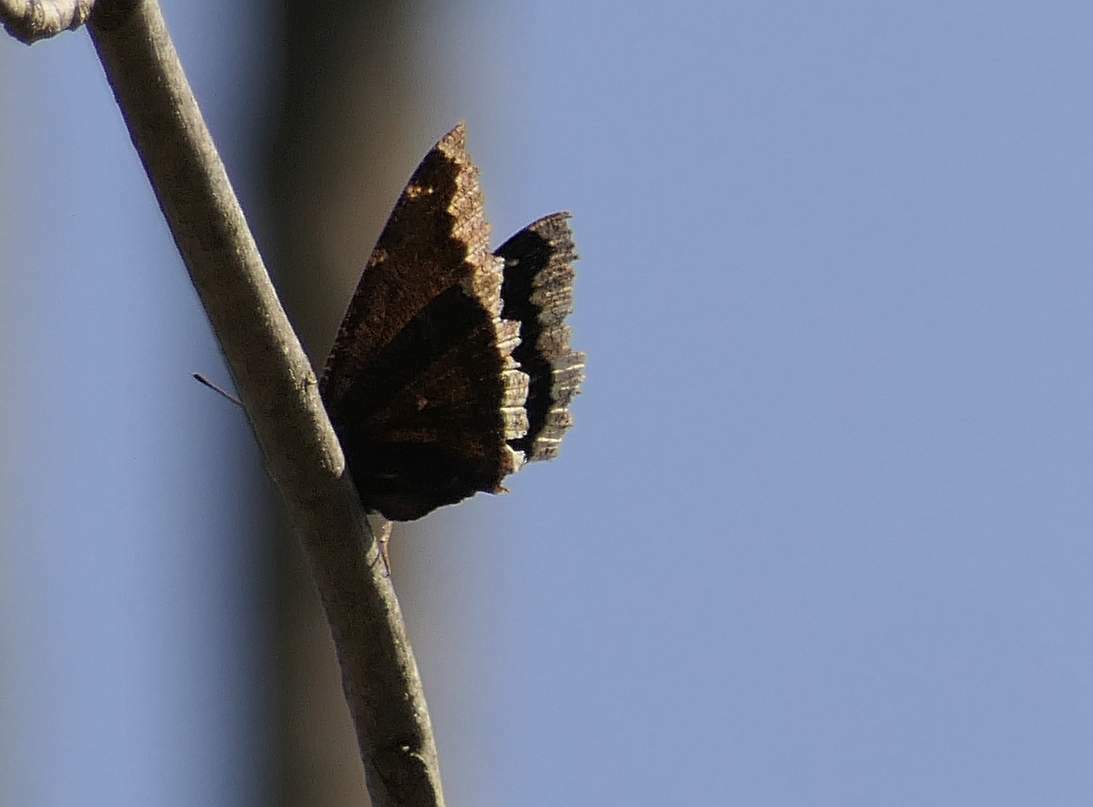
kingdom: Animalia
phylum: Arthropoda
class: Insecta
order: Lepidoptera
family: Nymphalidae
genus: Nymphalis
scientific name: Nymphalis antiopa
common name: Camberwell beauty
